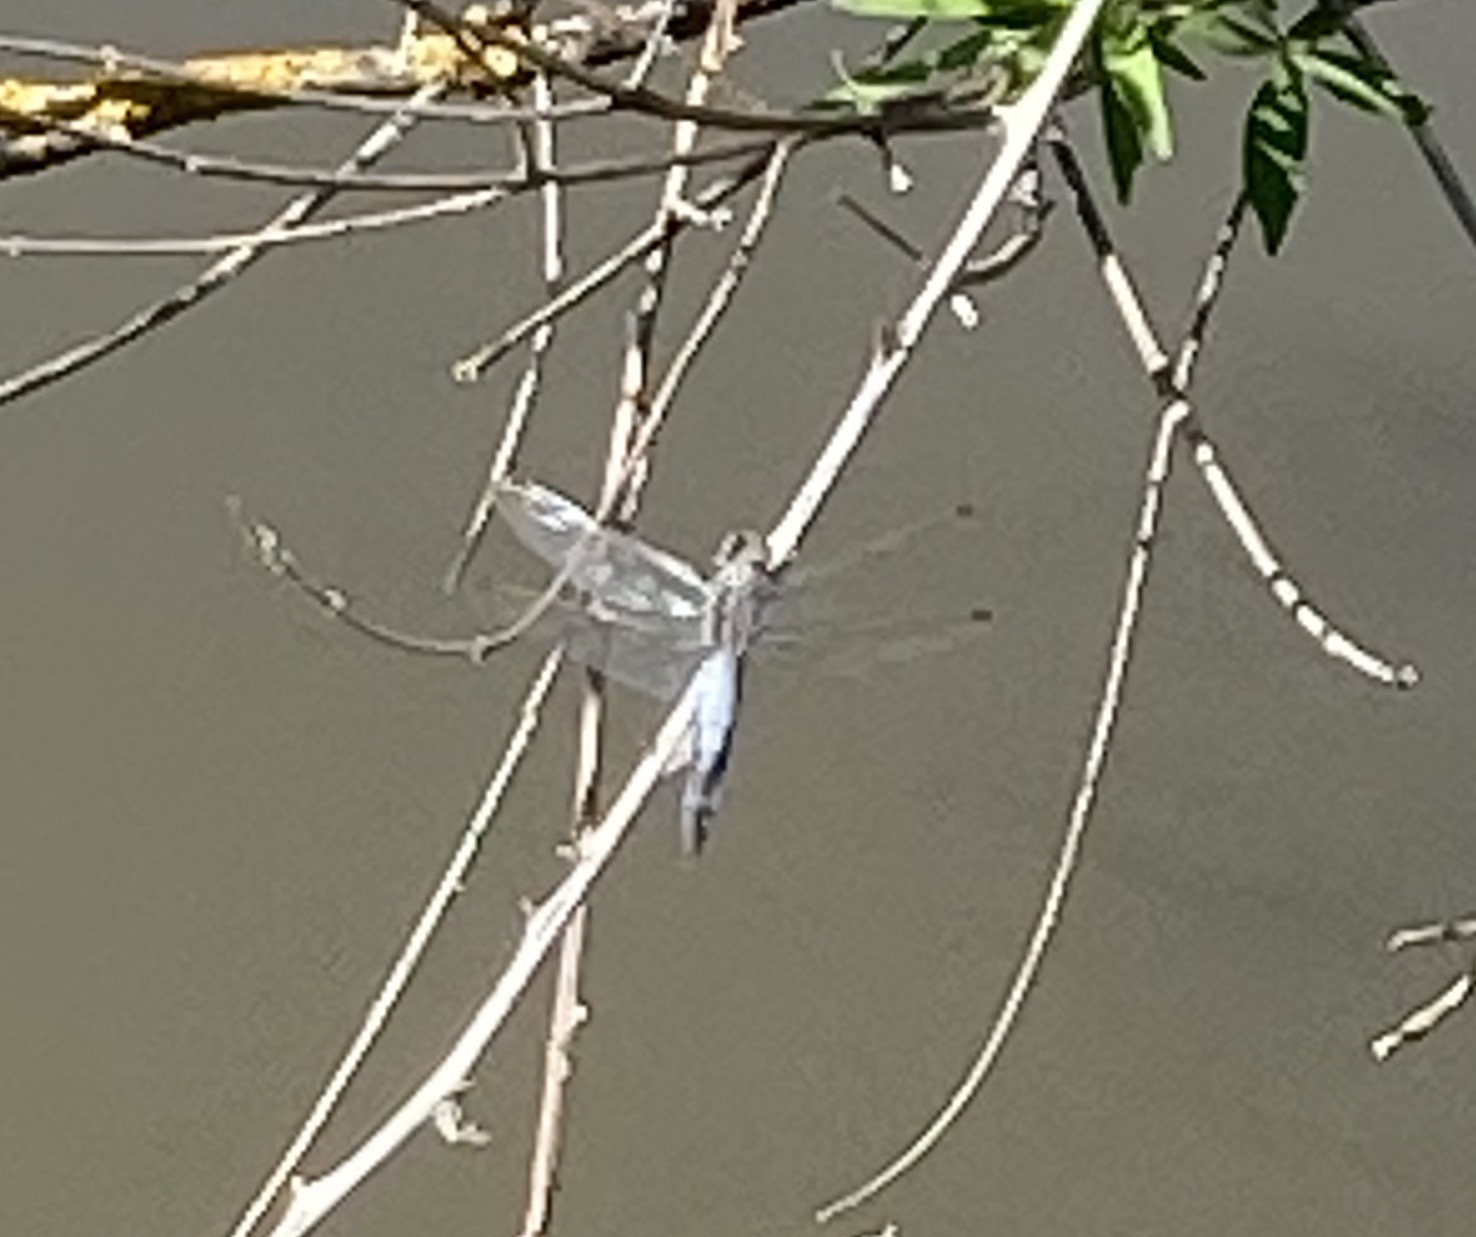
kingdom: Animalia
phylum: Arthropoda
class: Insecta
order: Odonata
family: Libellulidae
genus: Orthetrum
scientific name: Orthetrum cancellatum
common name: Black-tailed skimmer
